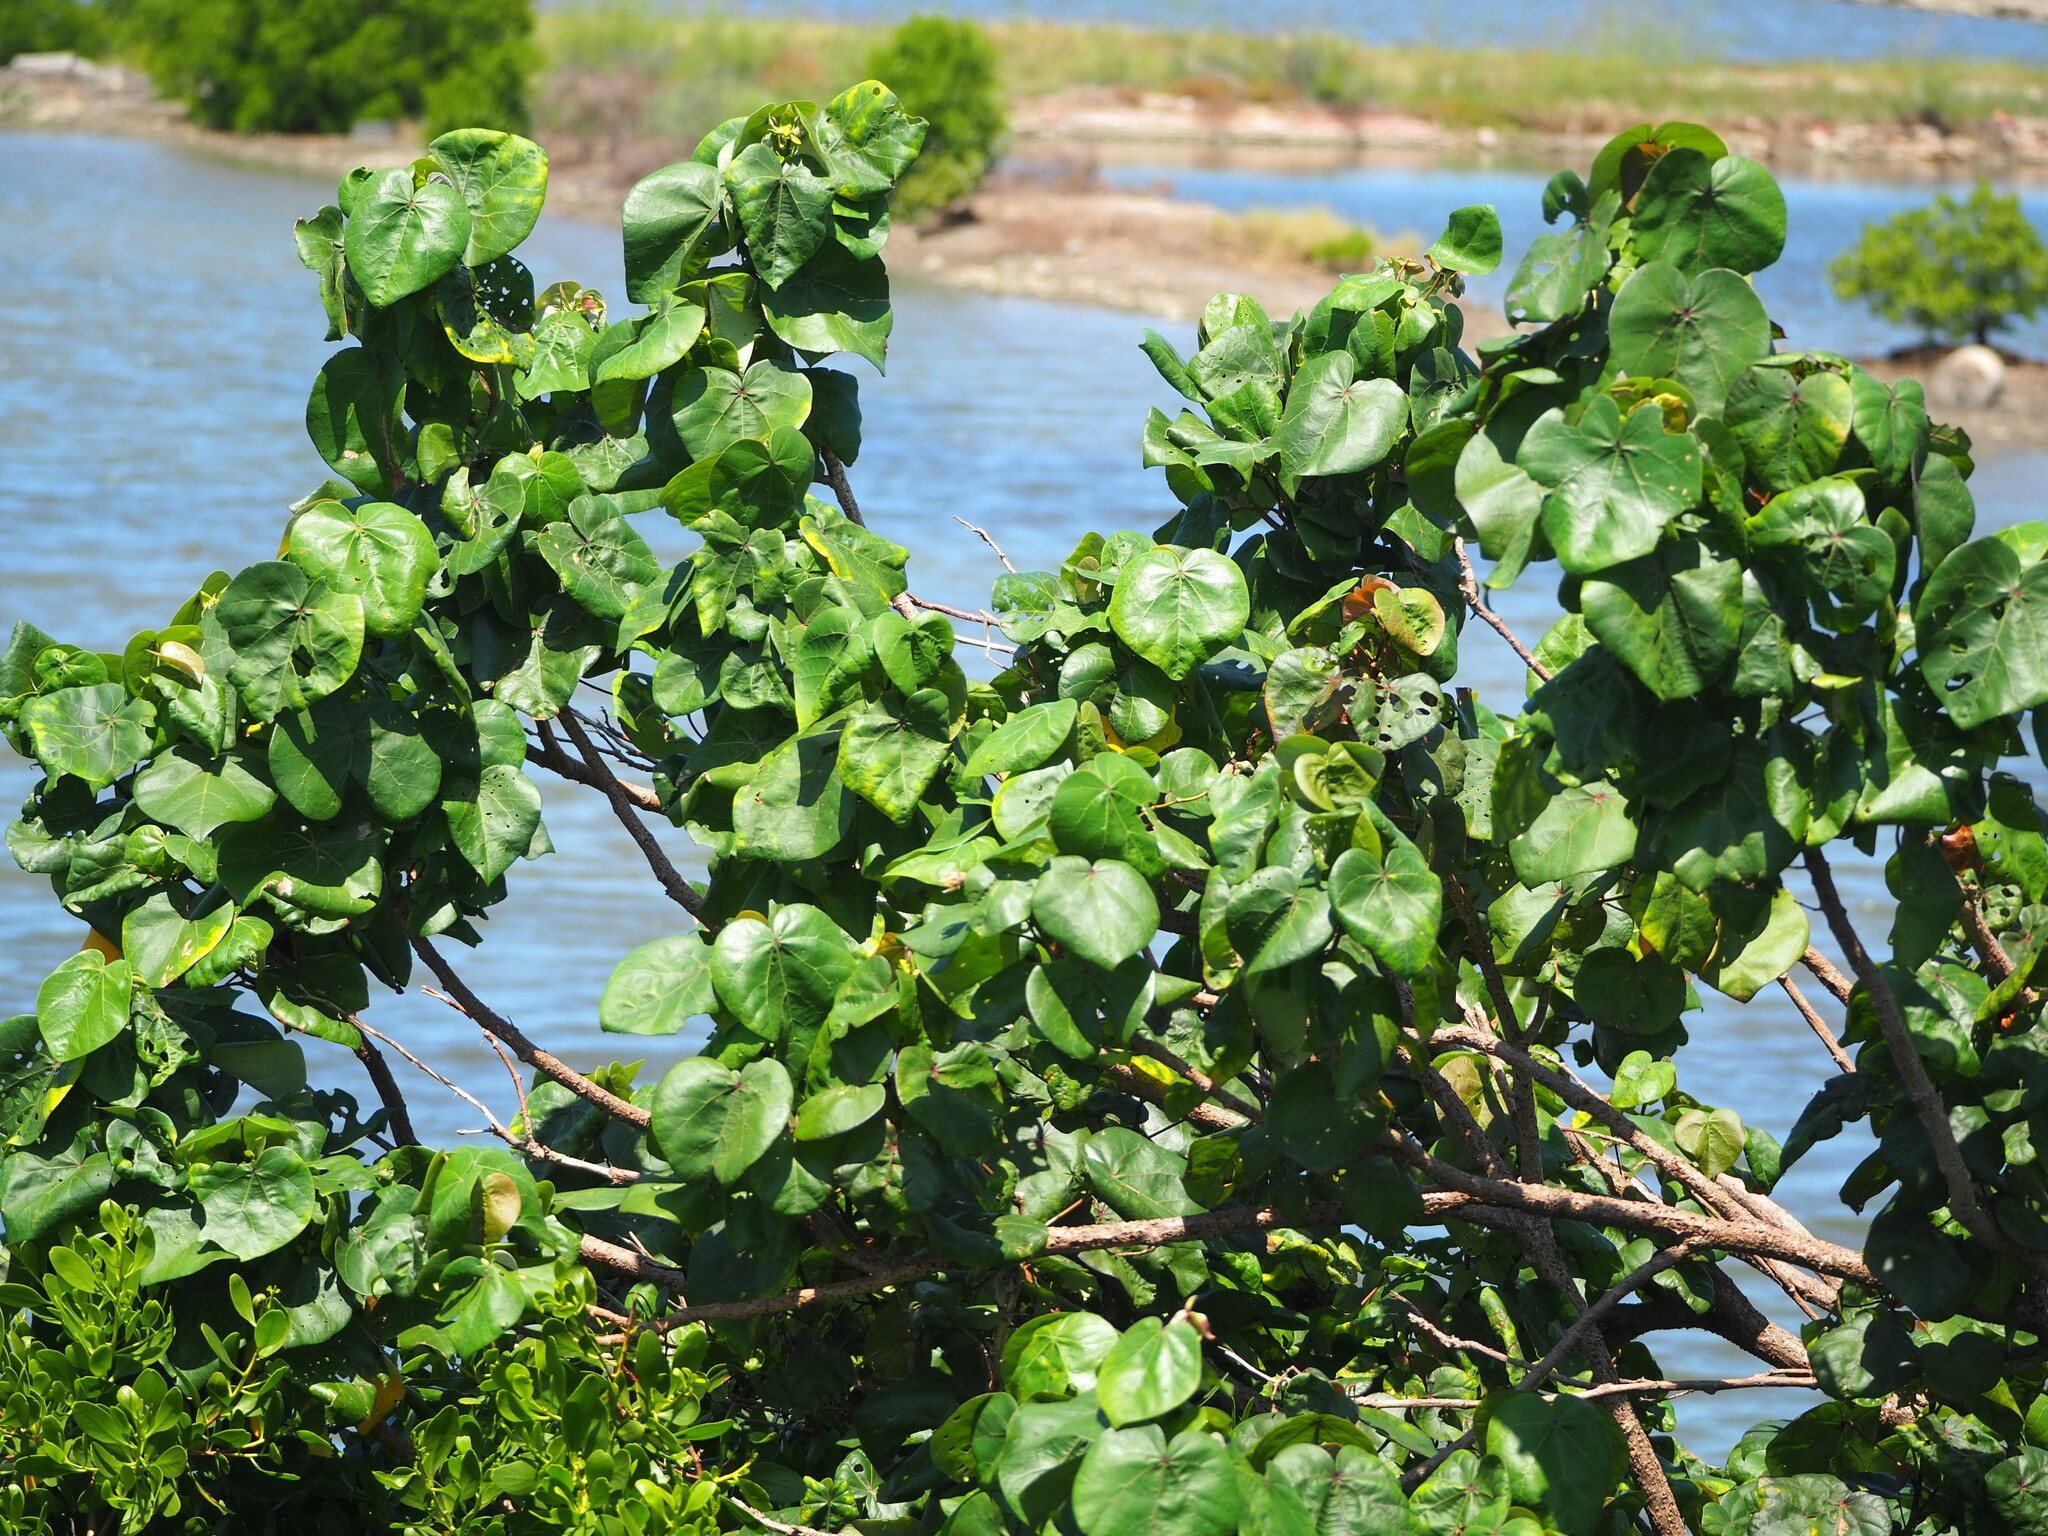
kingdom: Plantae
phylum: Tracheophyta
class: Magnoliopsida
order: Malvales
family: Malvaceae
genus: Talipariti
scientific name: Talipariti tiliaceum
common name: Sea hibiscus
